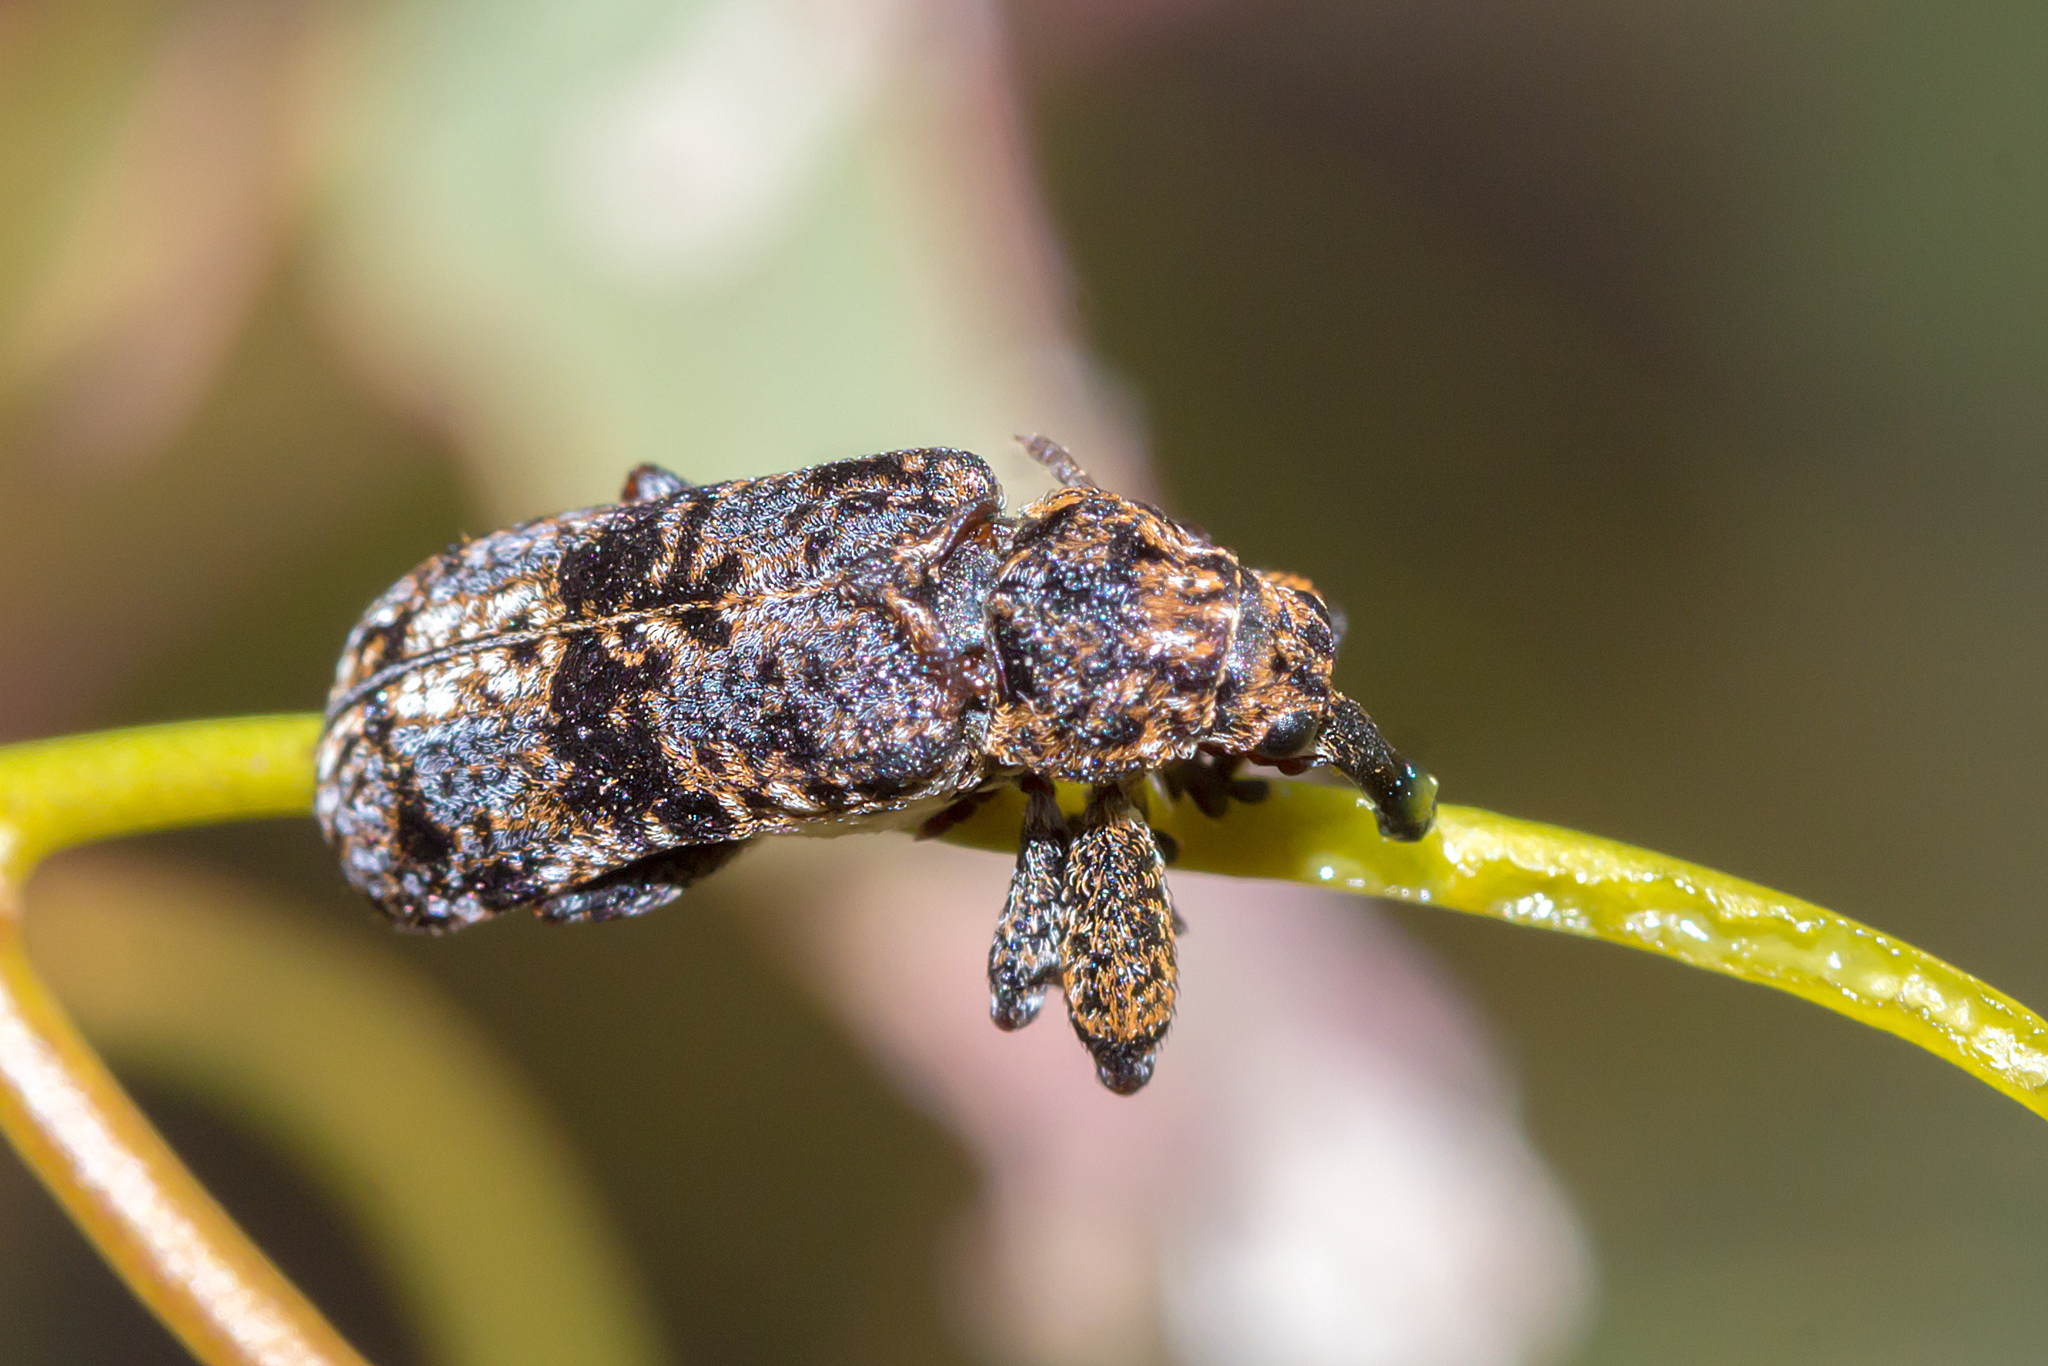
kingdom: Animalia
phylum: Arthropoda
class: Insecta
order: Coleoptera
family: Belidae
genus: Rhinotia
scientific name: Rhinotia dermestiventris
